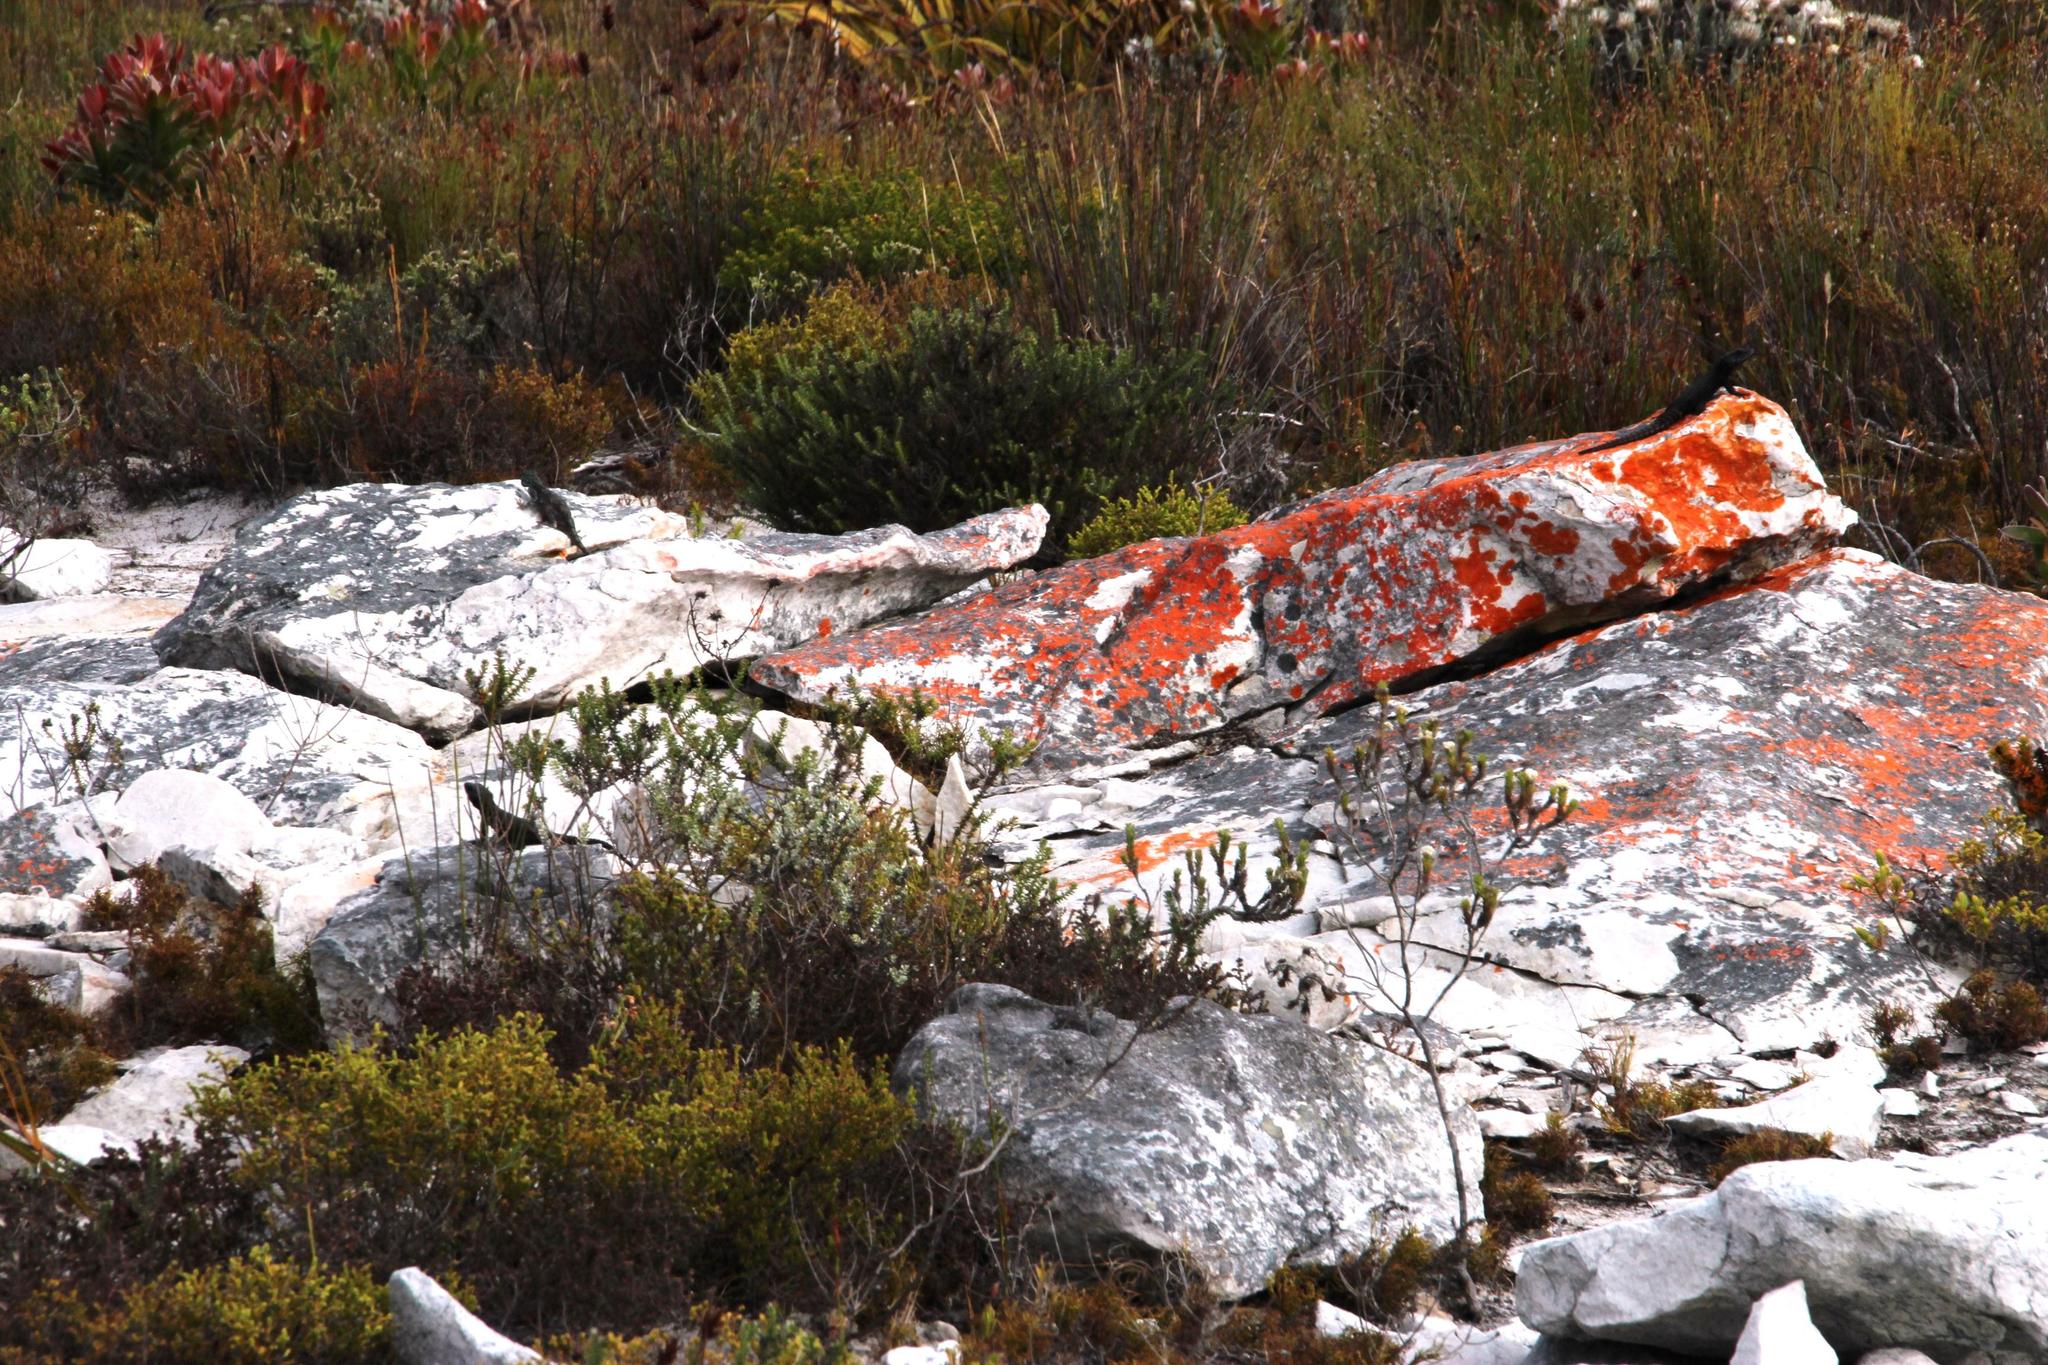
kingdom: Animalia
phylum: Chordata
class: Squamata
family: Agamidae
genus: Agama
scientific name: Agama atra
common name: Southern african rock agama
